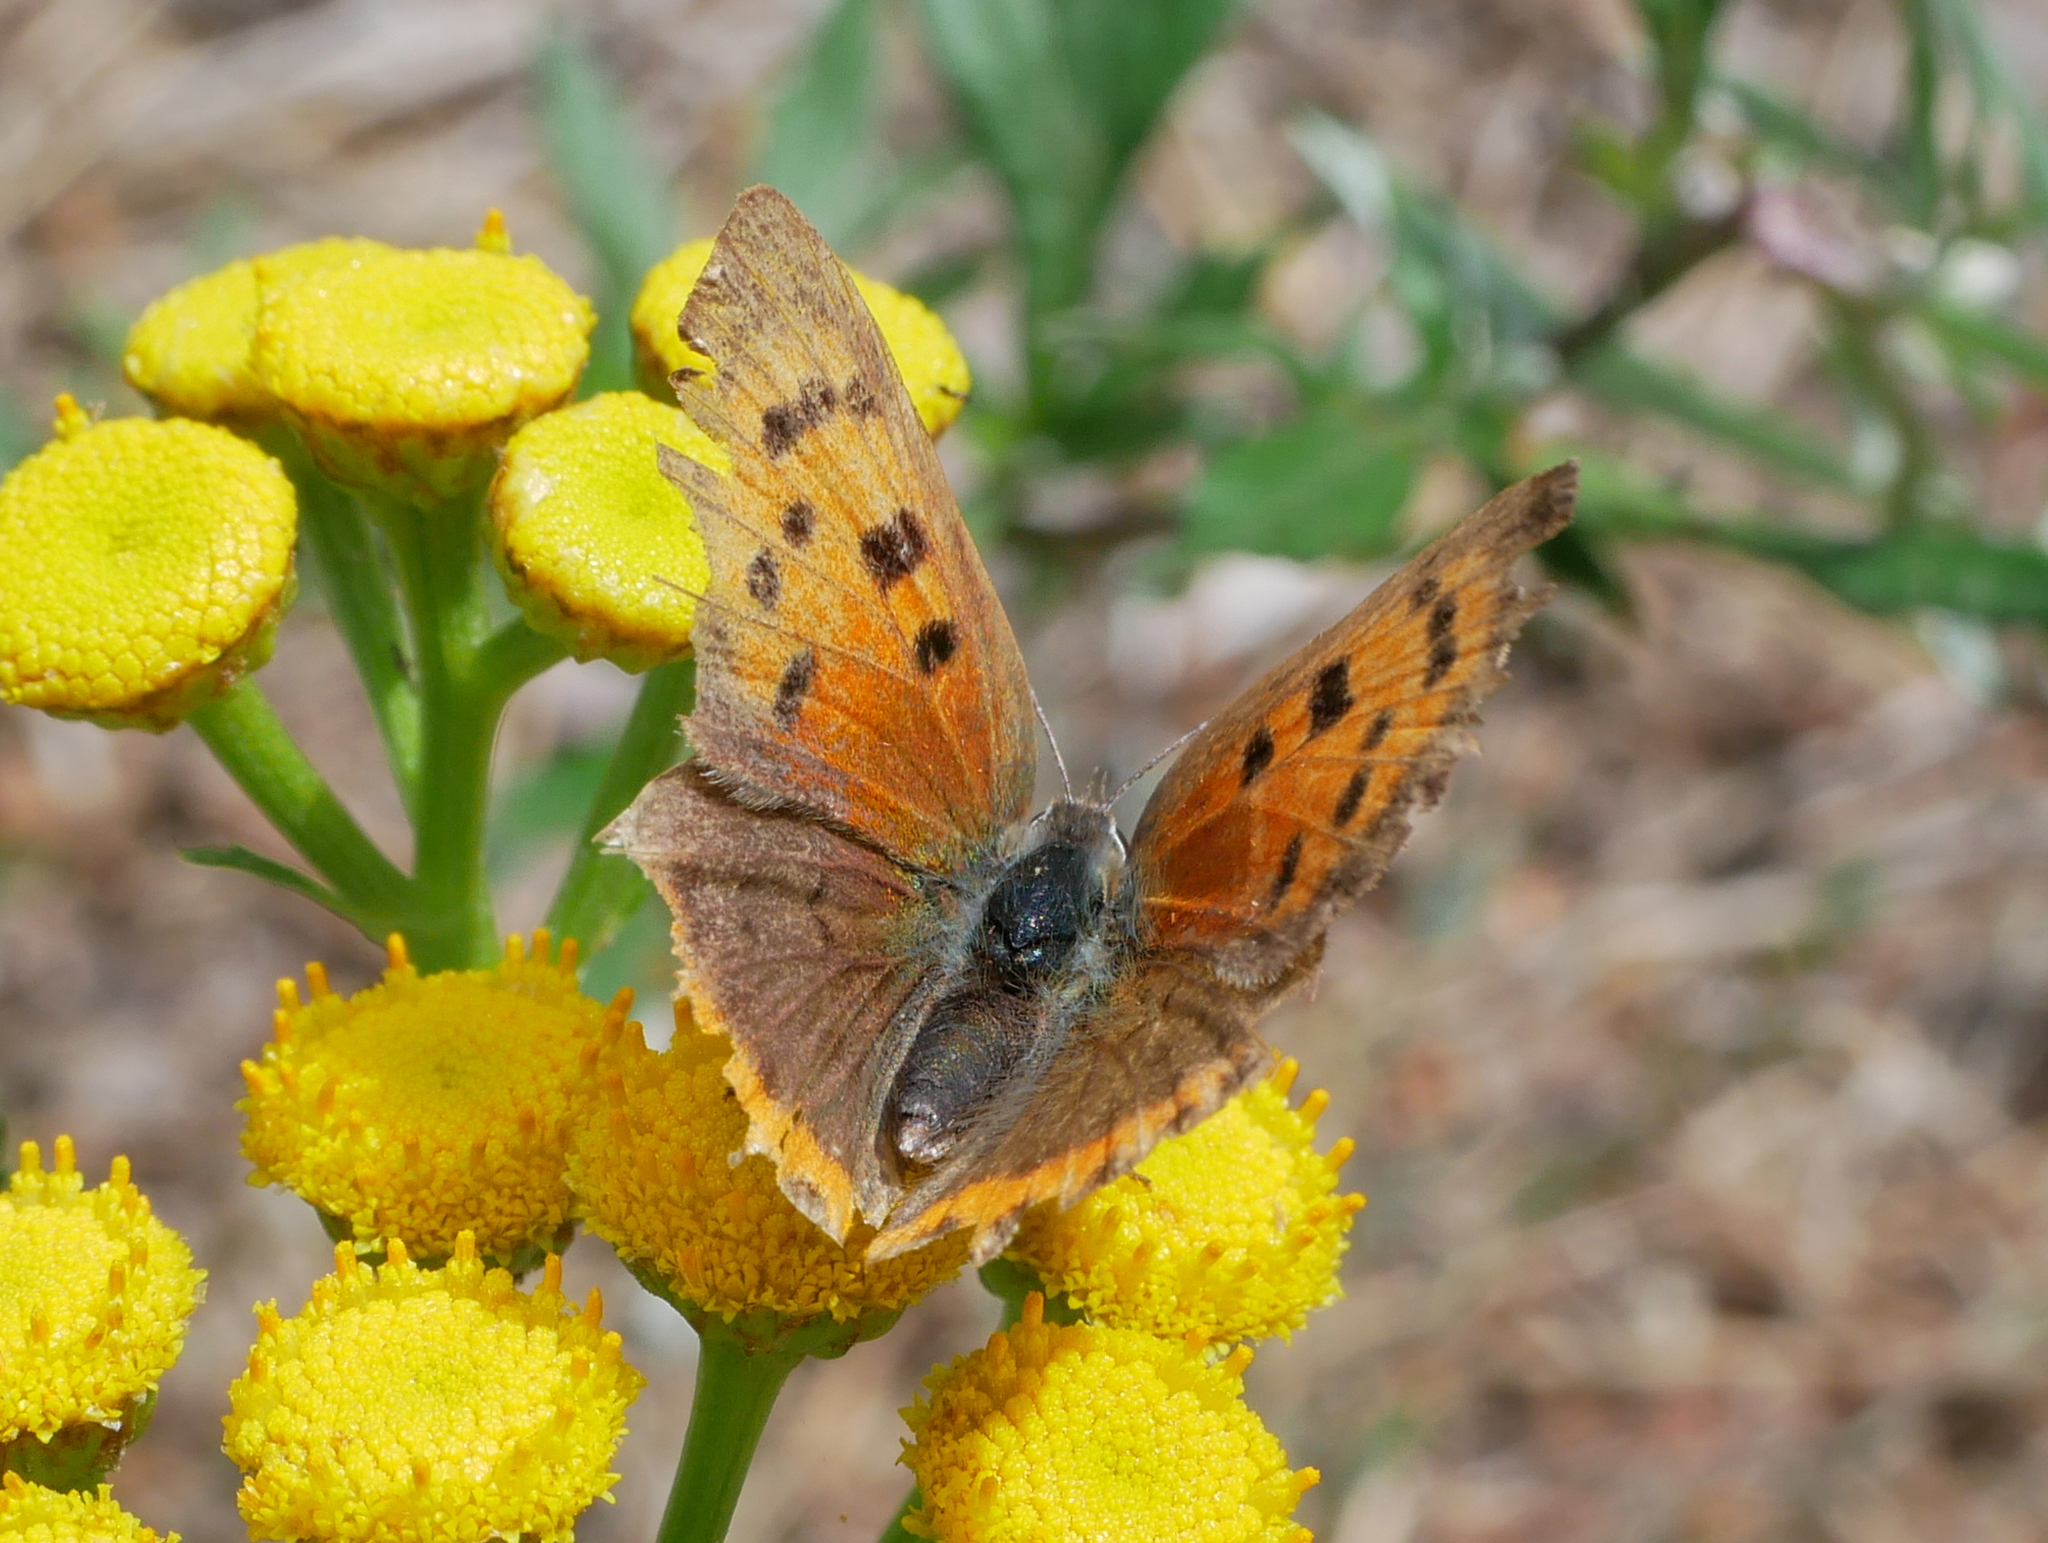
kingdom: Animalia
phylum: Arthropoda
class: Insecta
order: Lepidoptera
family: Lycaenidae
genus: Lycaena
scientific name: Lycaena phlaeas
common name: Small copper
